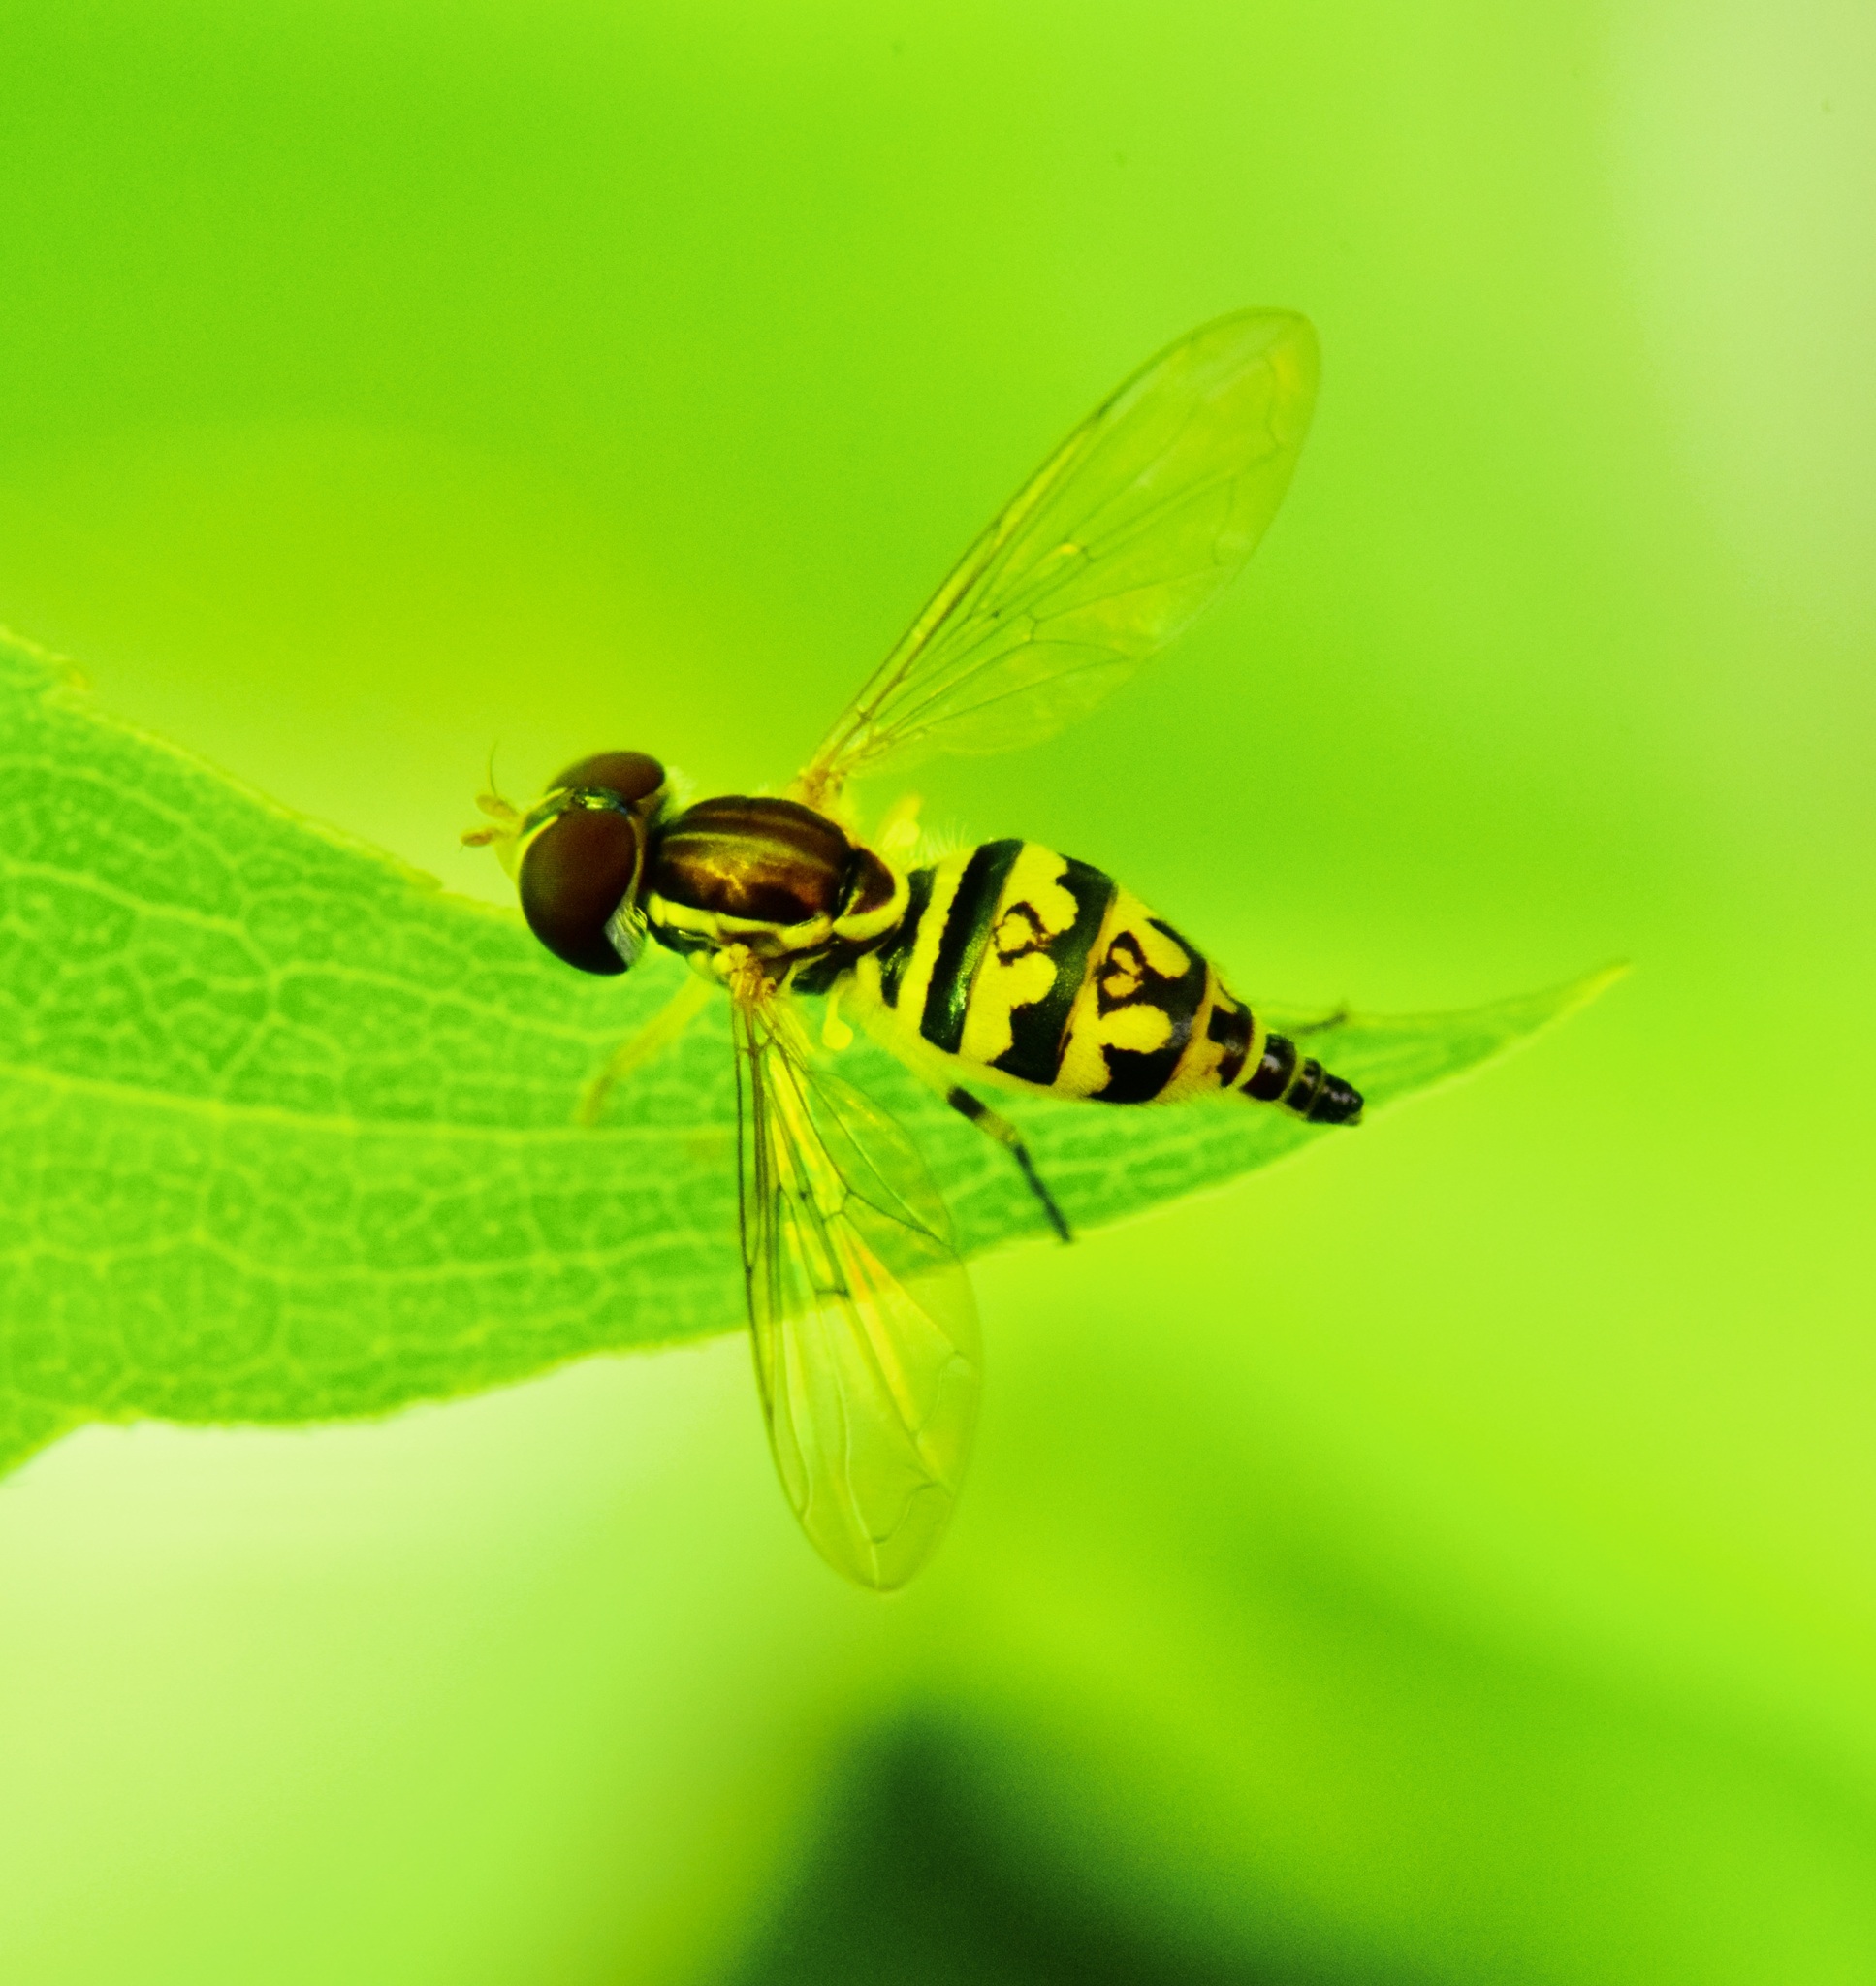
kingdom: Animalia
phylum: Arthropoda
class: Insecta
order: Diptera
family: Syrphidae
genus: Toxomerus
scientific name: Toxomerus geminatus
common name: Eastern calligrapher
